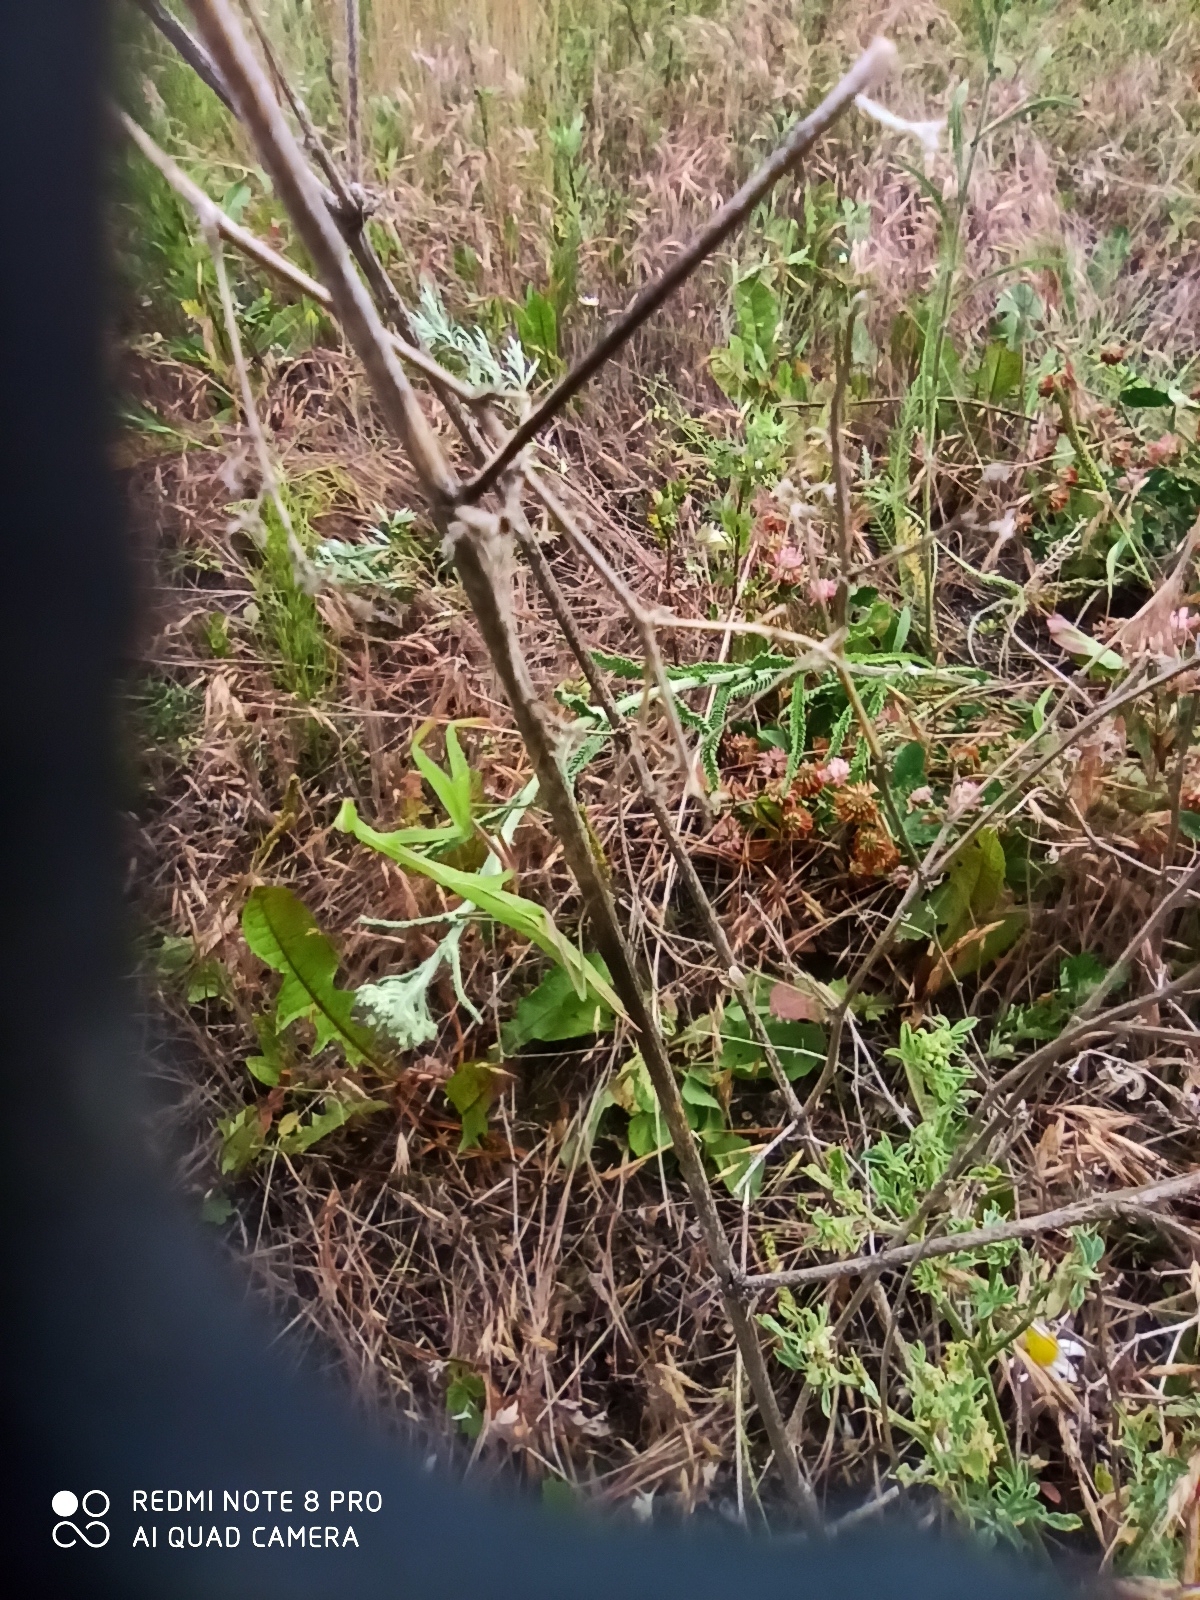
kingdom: Animalia
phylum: Arthropoda
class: Insecta
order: Mantodea
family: Mantidae
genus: Mantis
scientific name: Mantis religiosa
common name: Praying mantis
